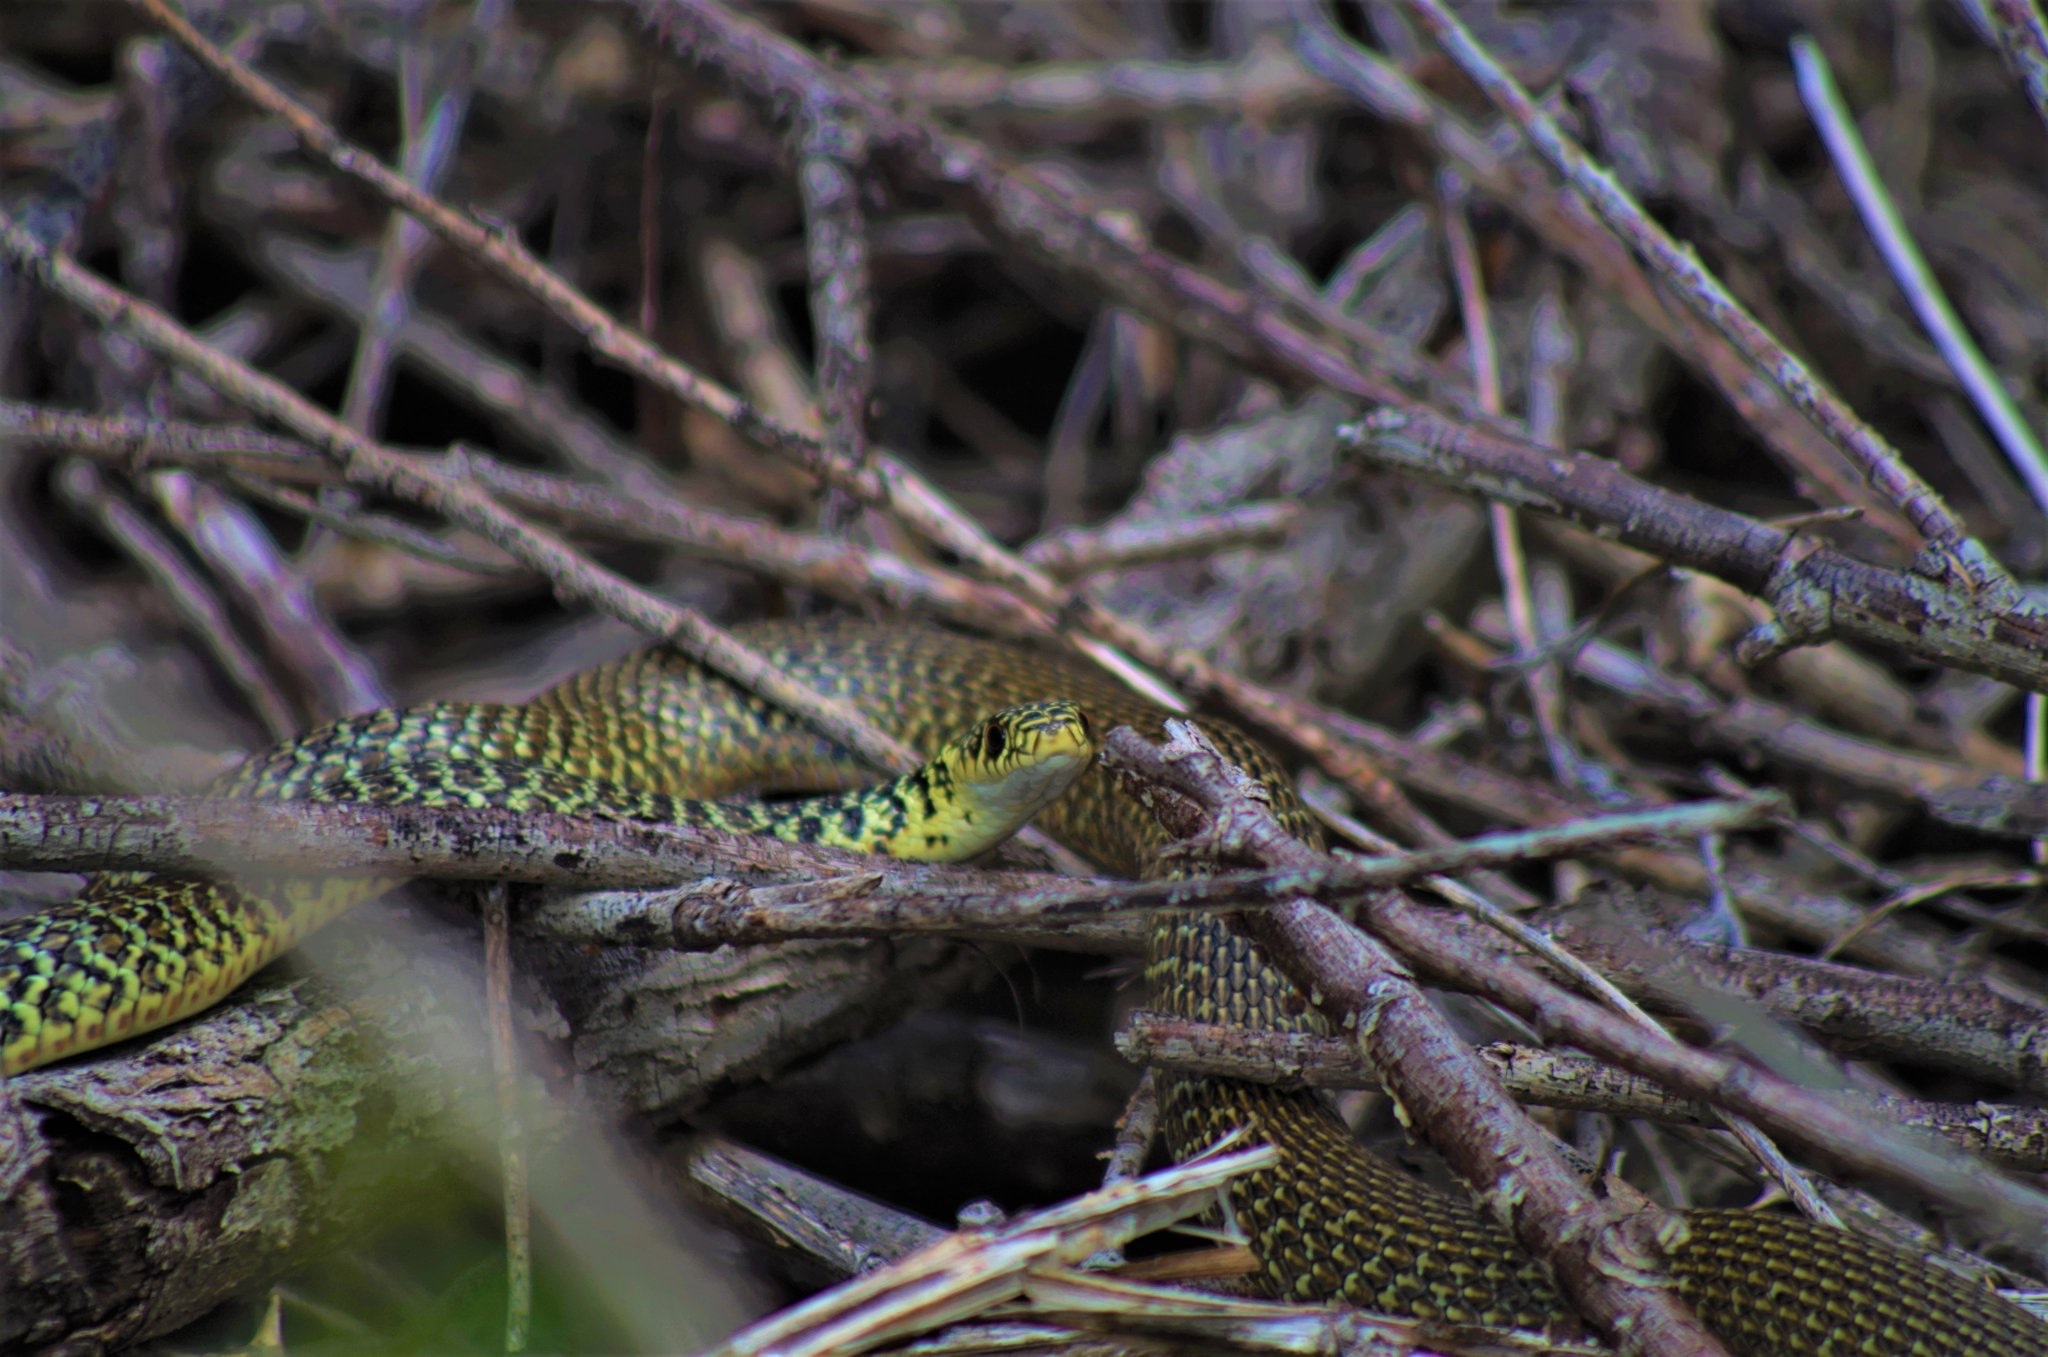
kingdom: Animalia
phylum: Chordata
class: Squamata
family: Colubridae
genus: Hierophis
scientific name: Hierophis viridiflavus
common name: Green whip snake
